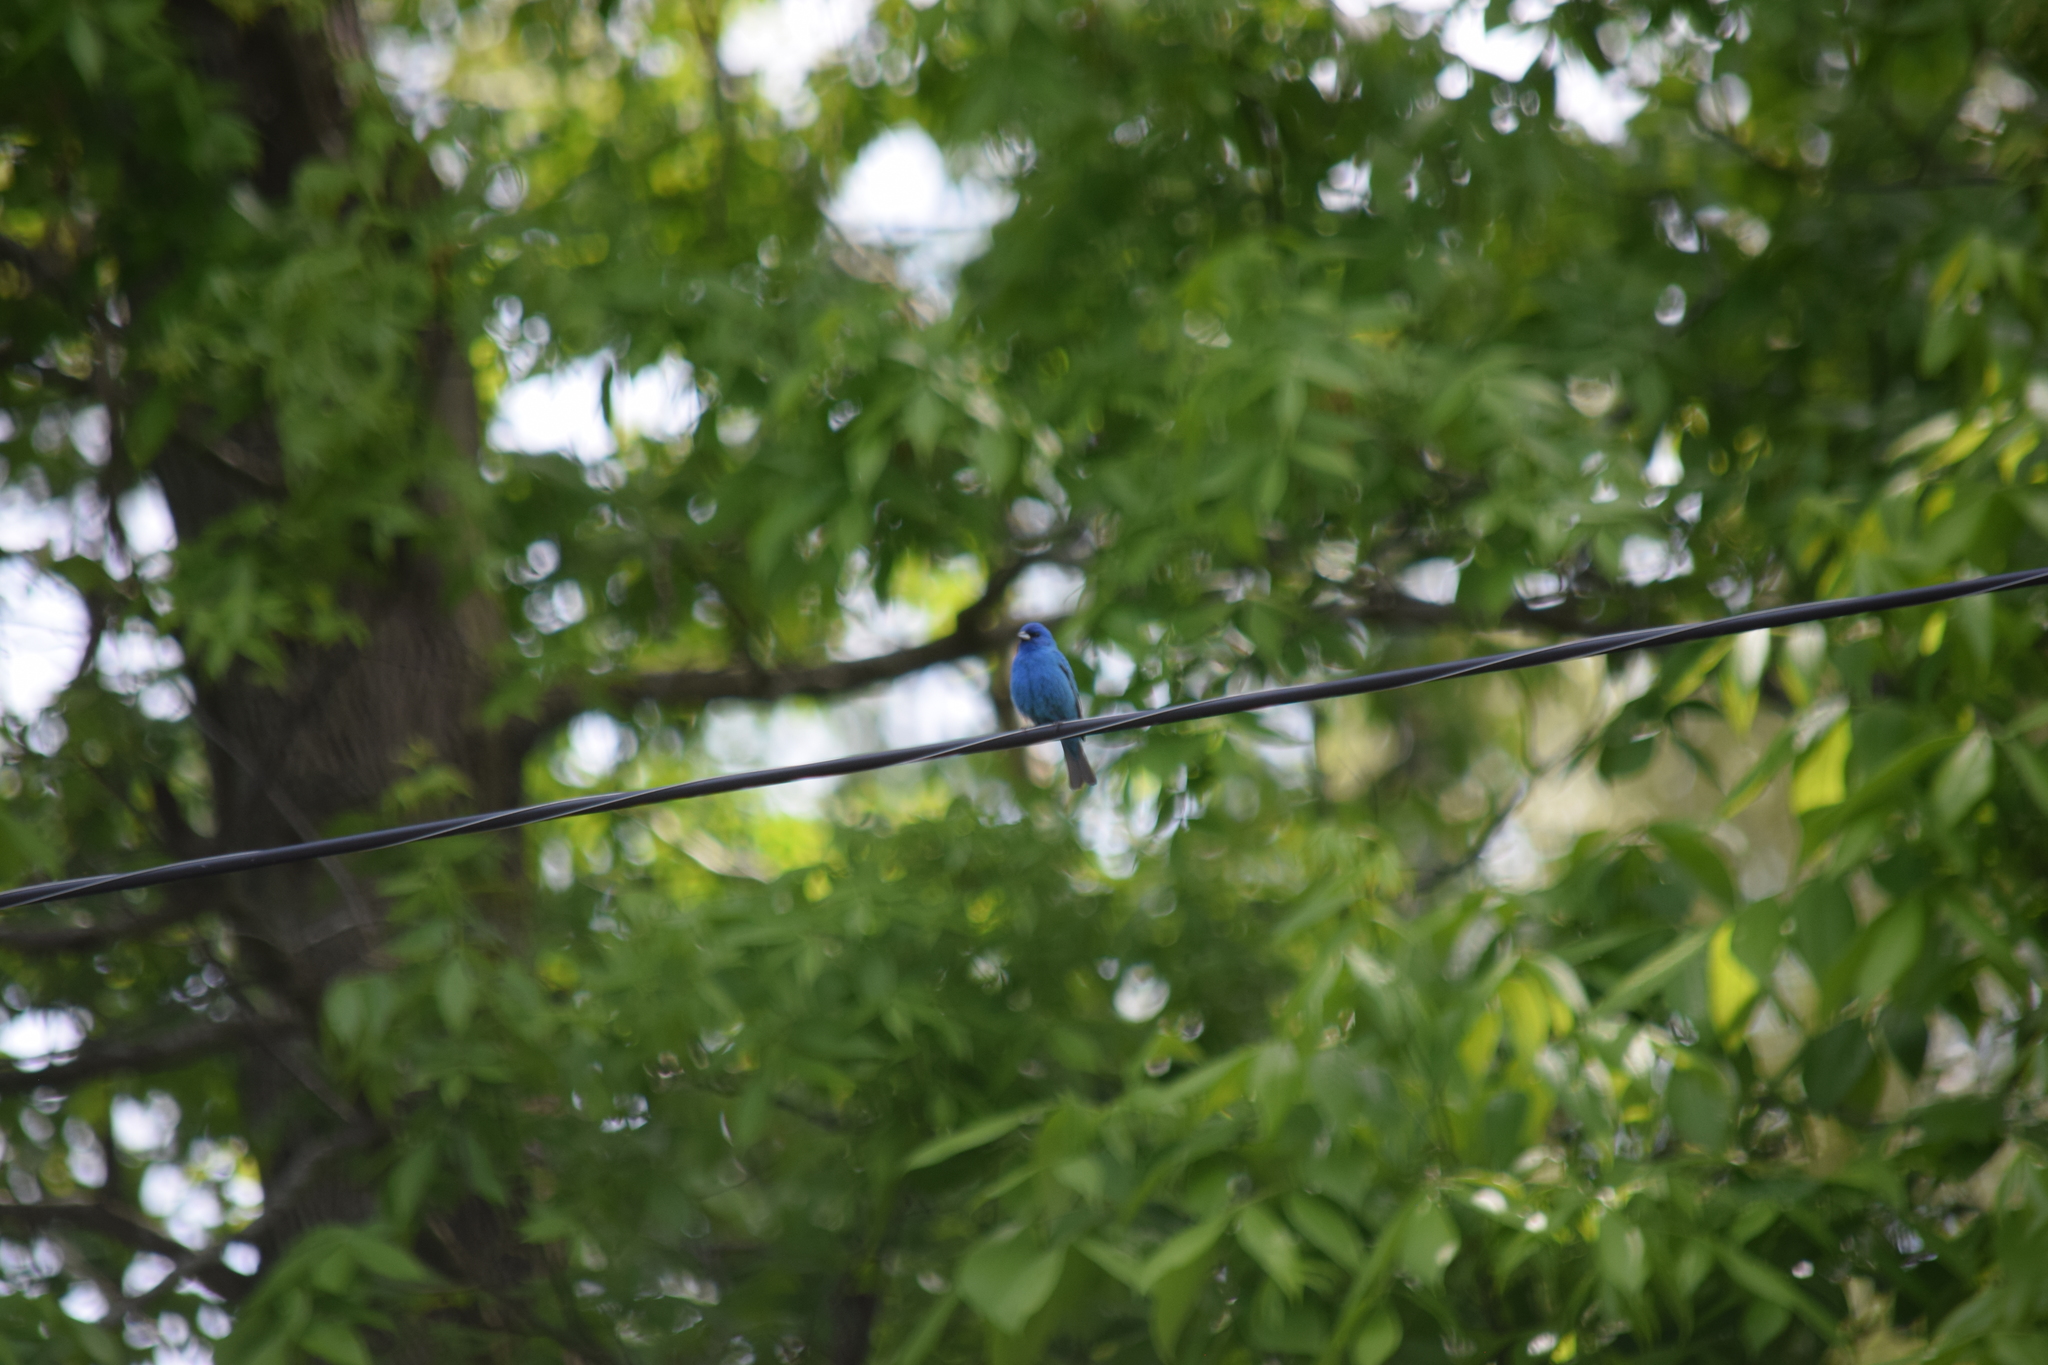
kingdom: Animalia
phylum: Chordata
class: Aves
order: Passeriformes
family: Cardinalidae
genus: Passerina
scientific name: Passerina cyanea
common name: Indigo bunting
